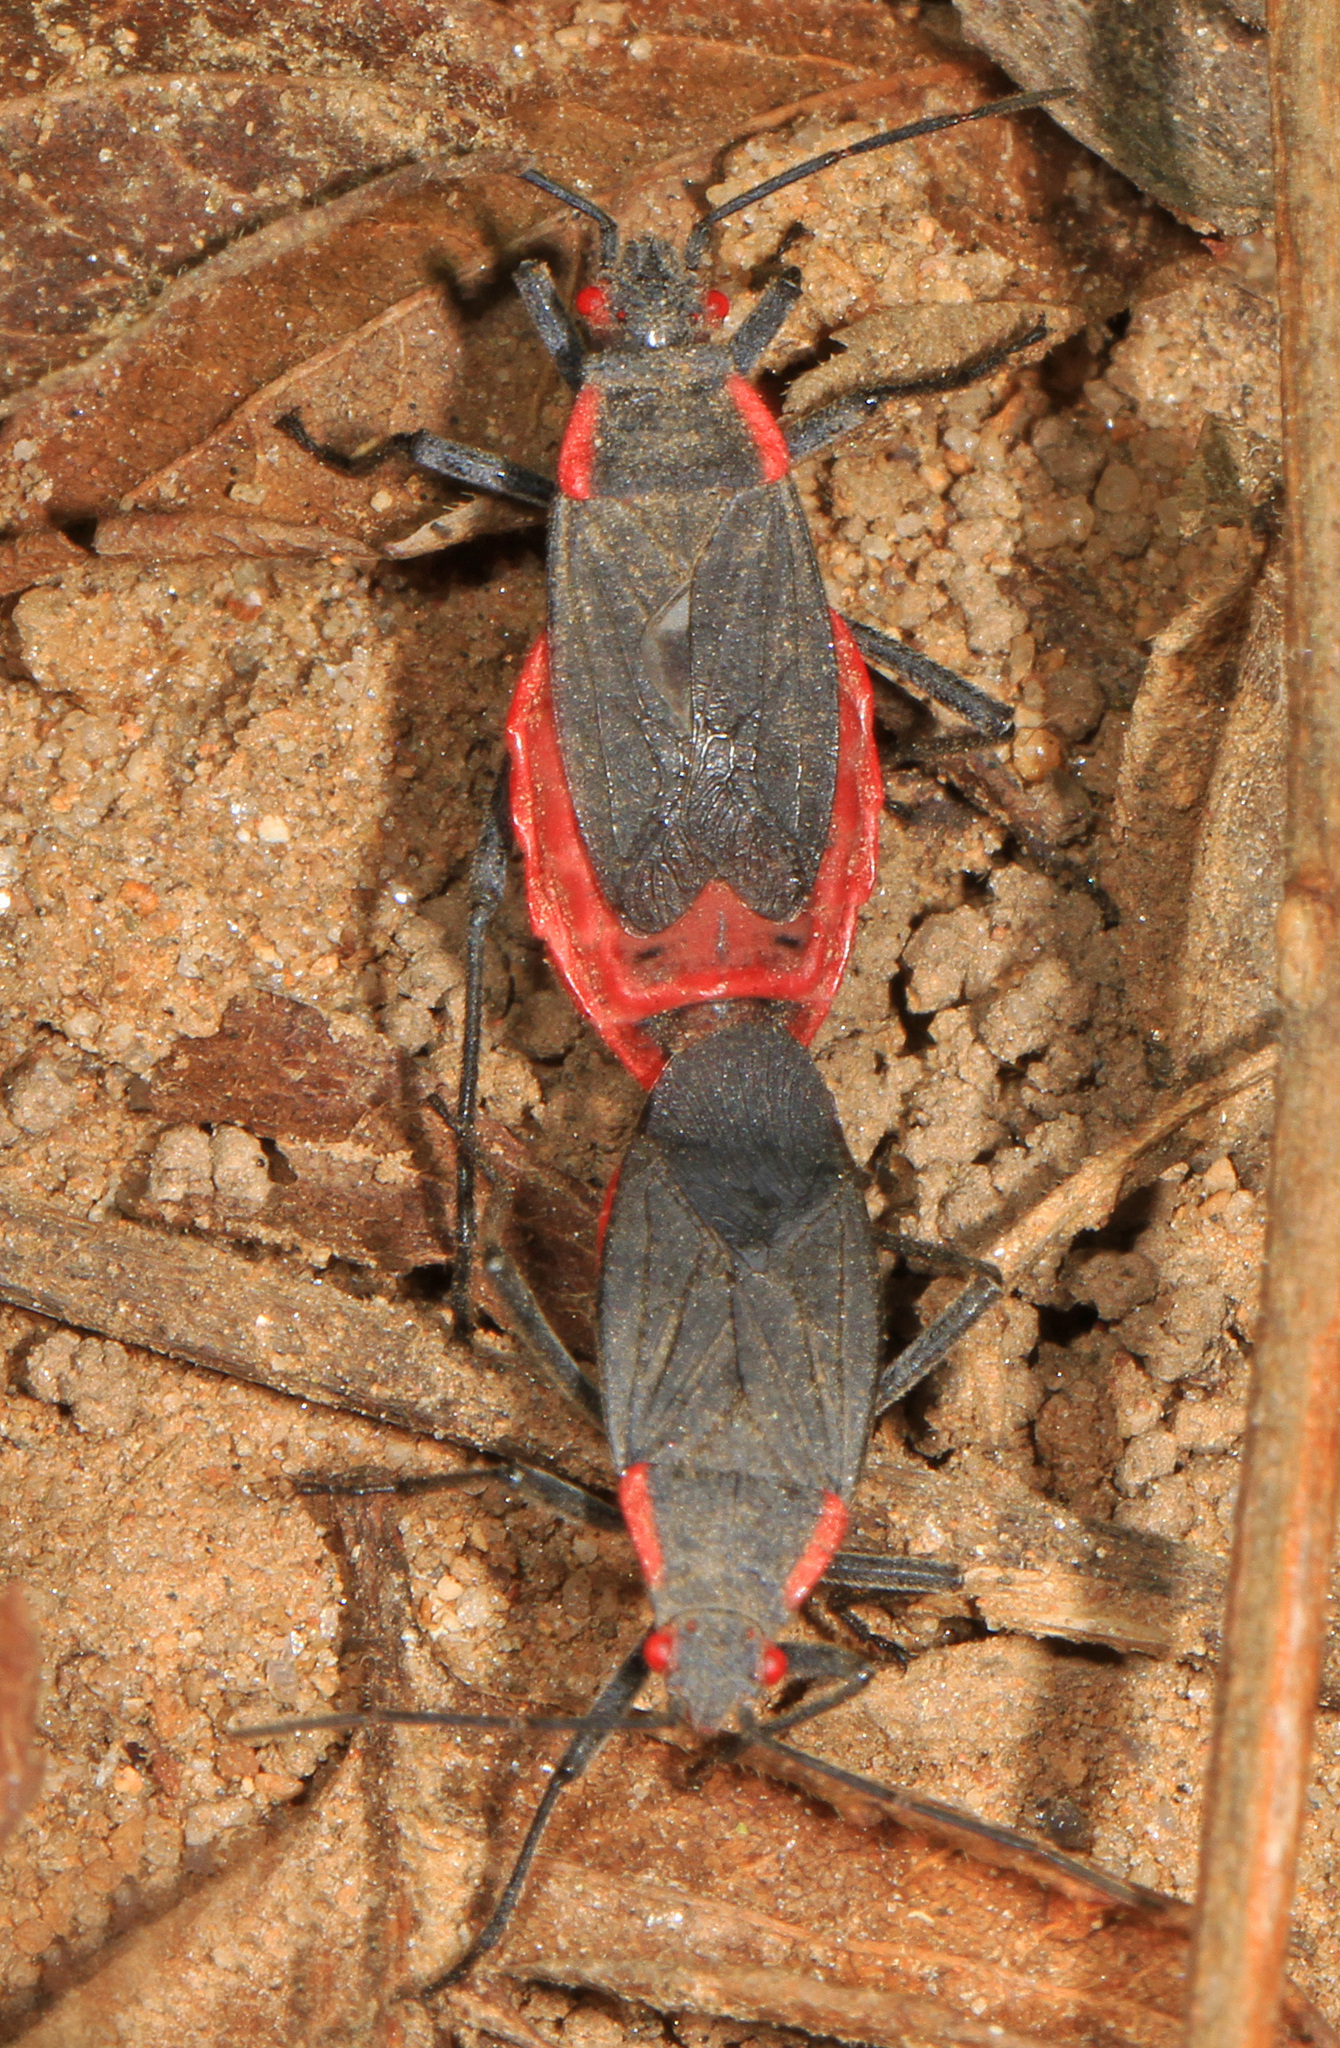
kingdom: Animalia
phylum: Arthropoda
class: Insecta
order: Hemiptera
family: Rhopalidae
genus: Jadera
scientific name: Jadera haematoloma
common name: Red-shouldered bug
